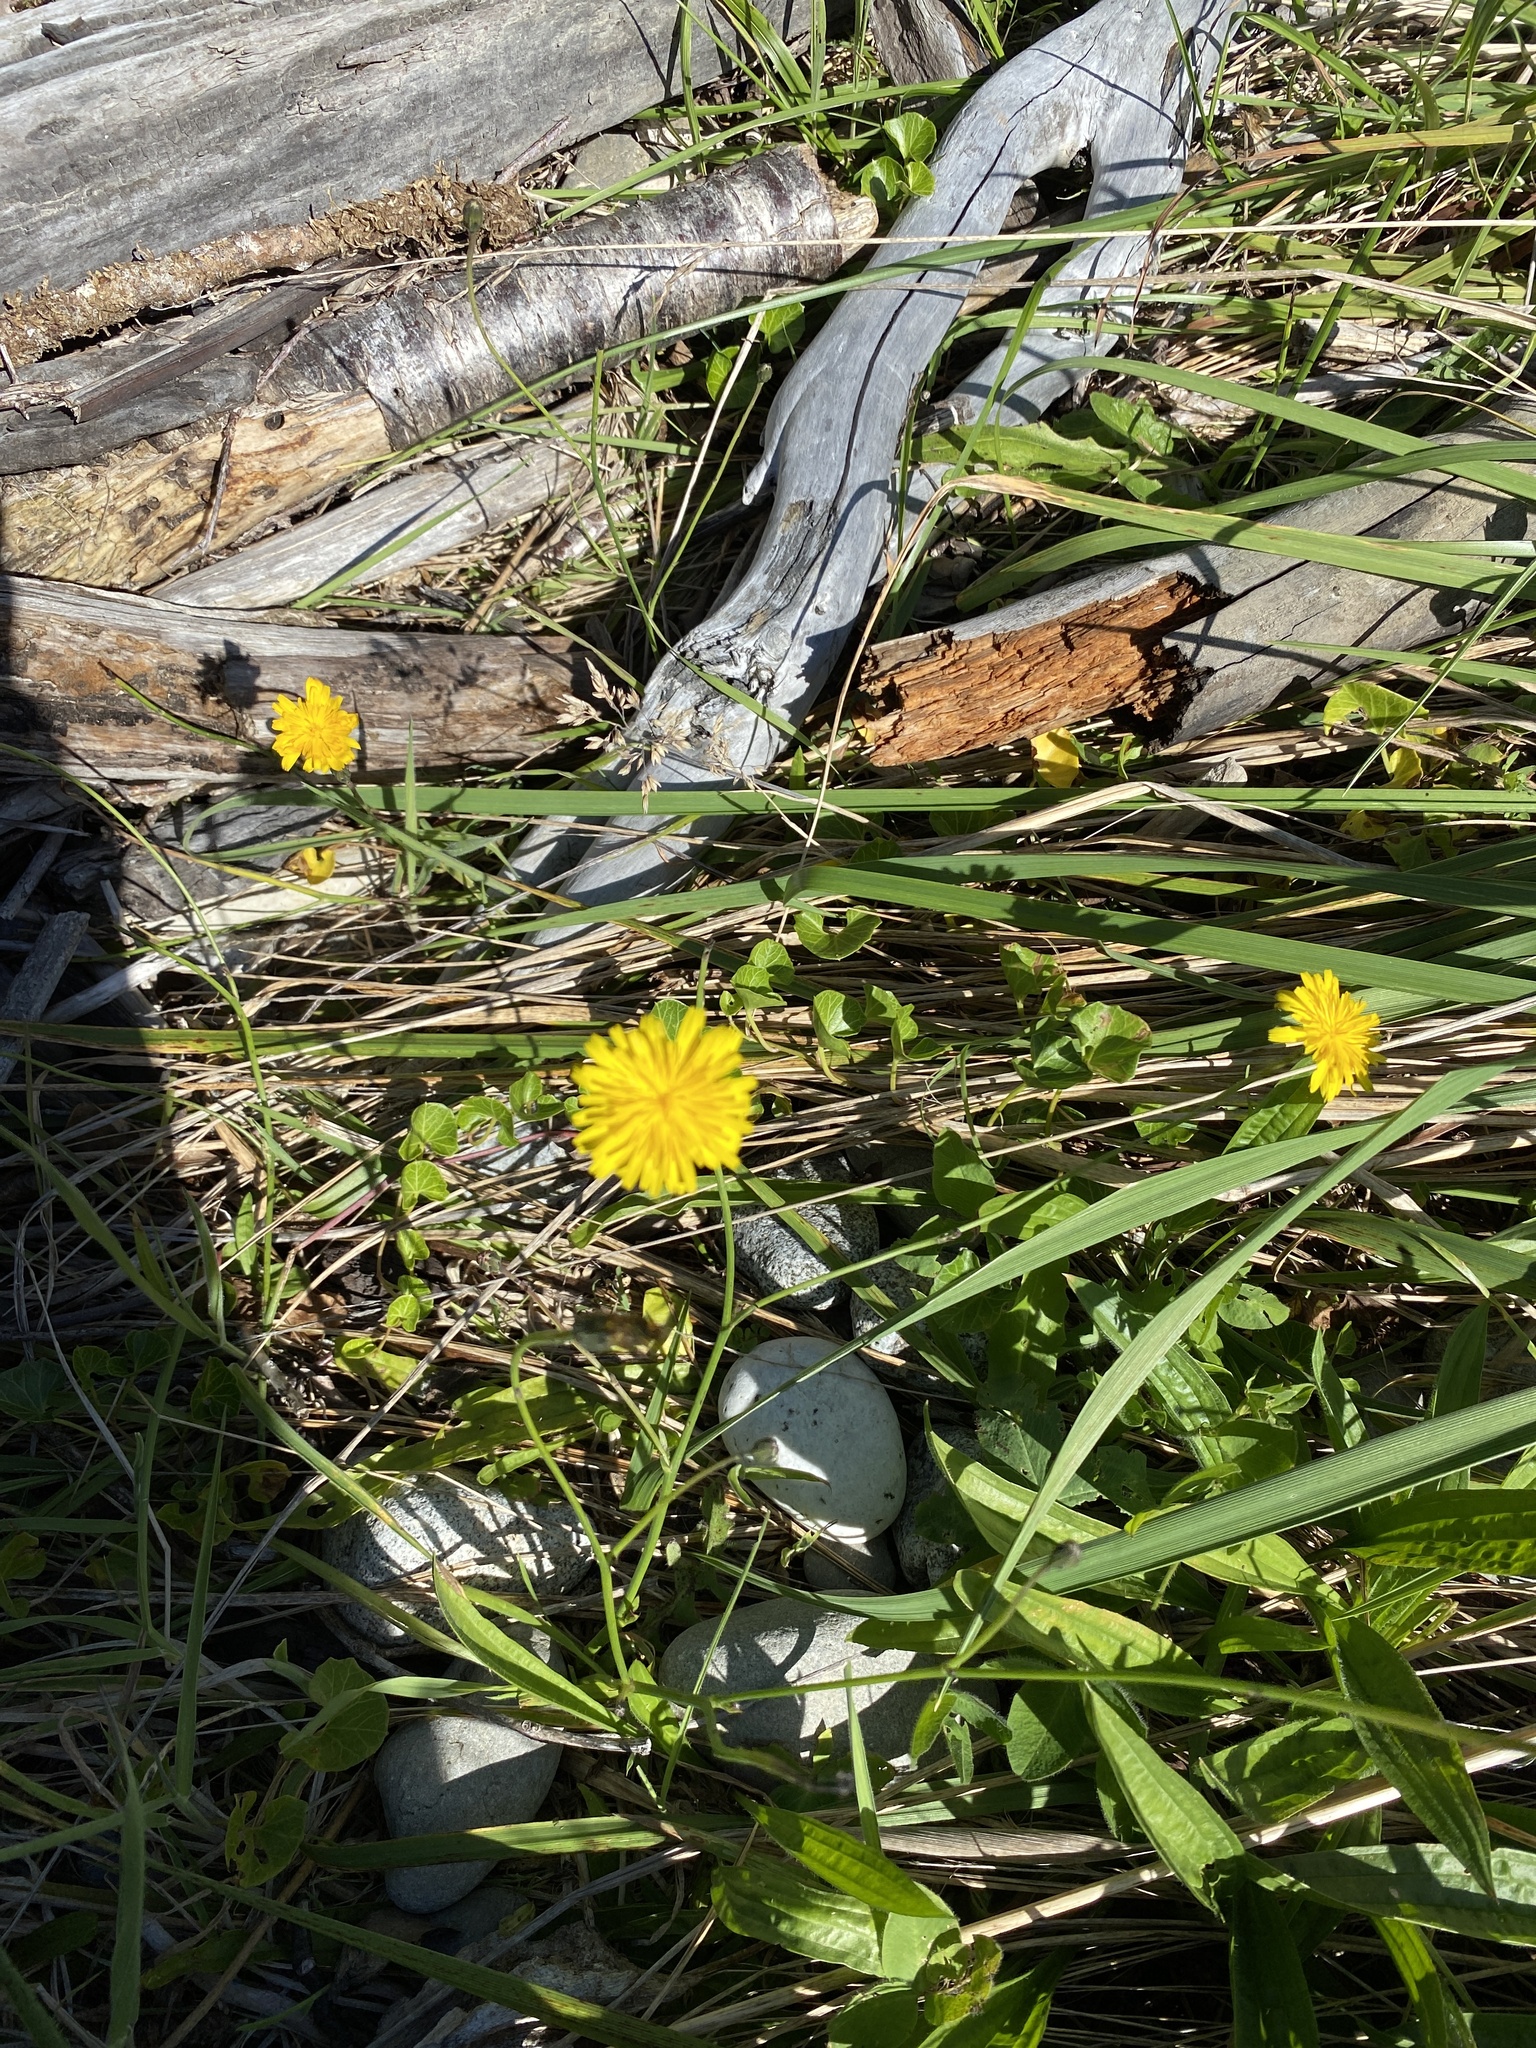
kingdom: Plantae
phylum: Tracheophyta
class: Magnoliopsida
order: Asterales
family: Asteraceae
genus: Taraxacum
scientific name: Taraxacum officinale
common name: Common dandelion
